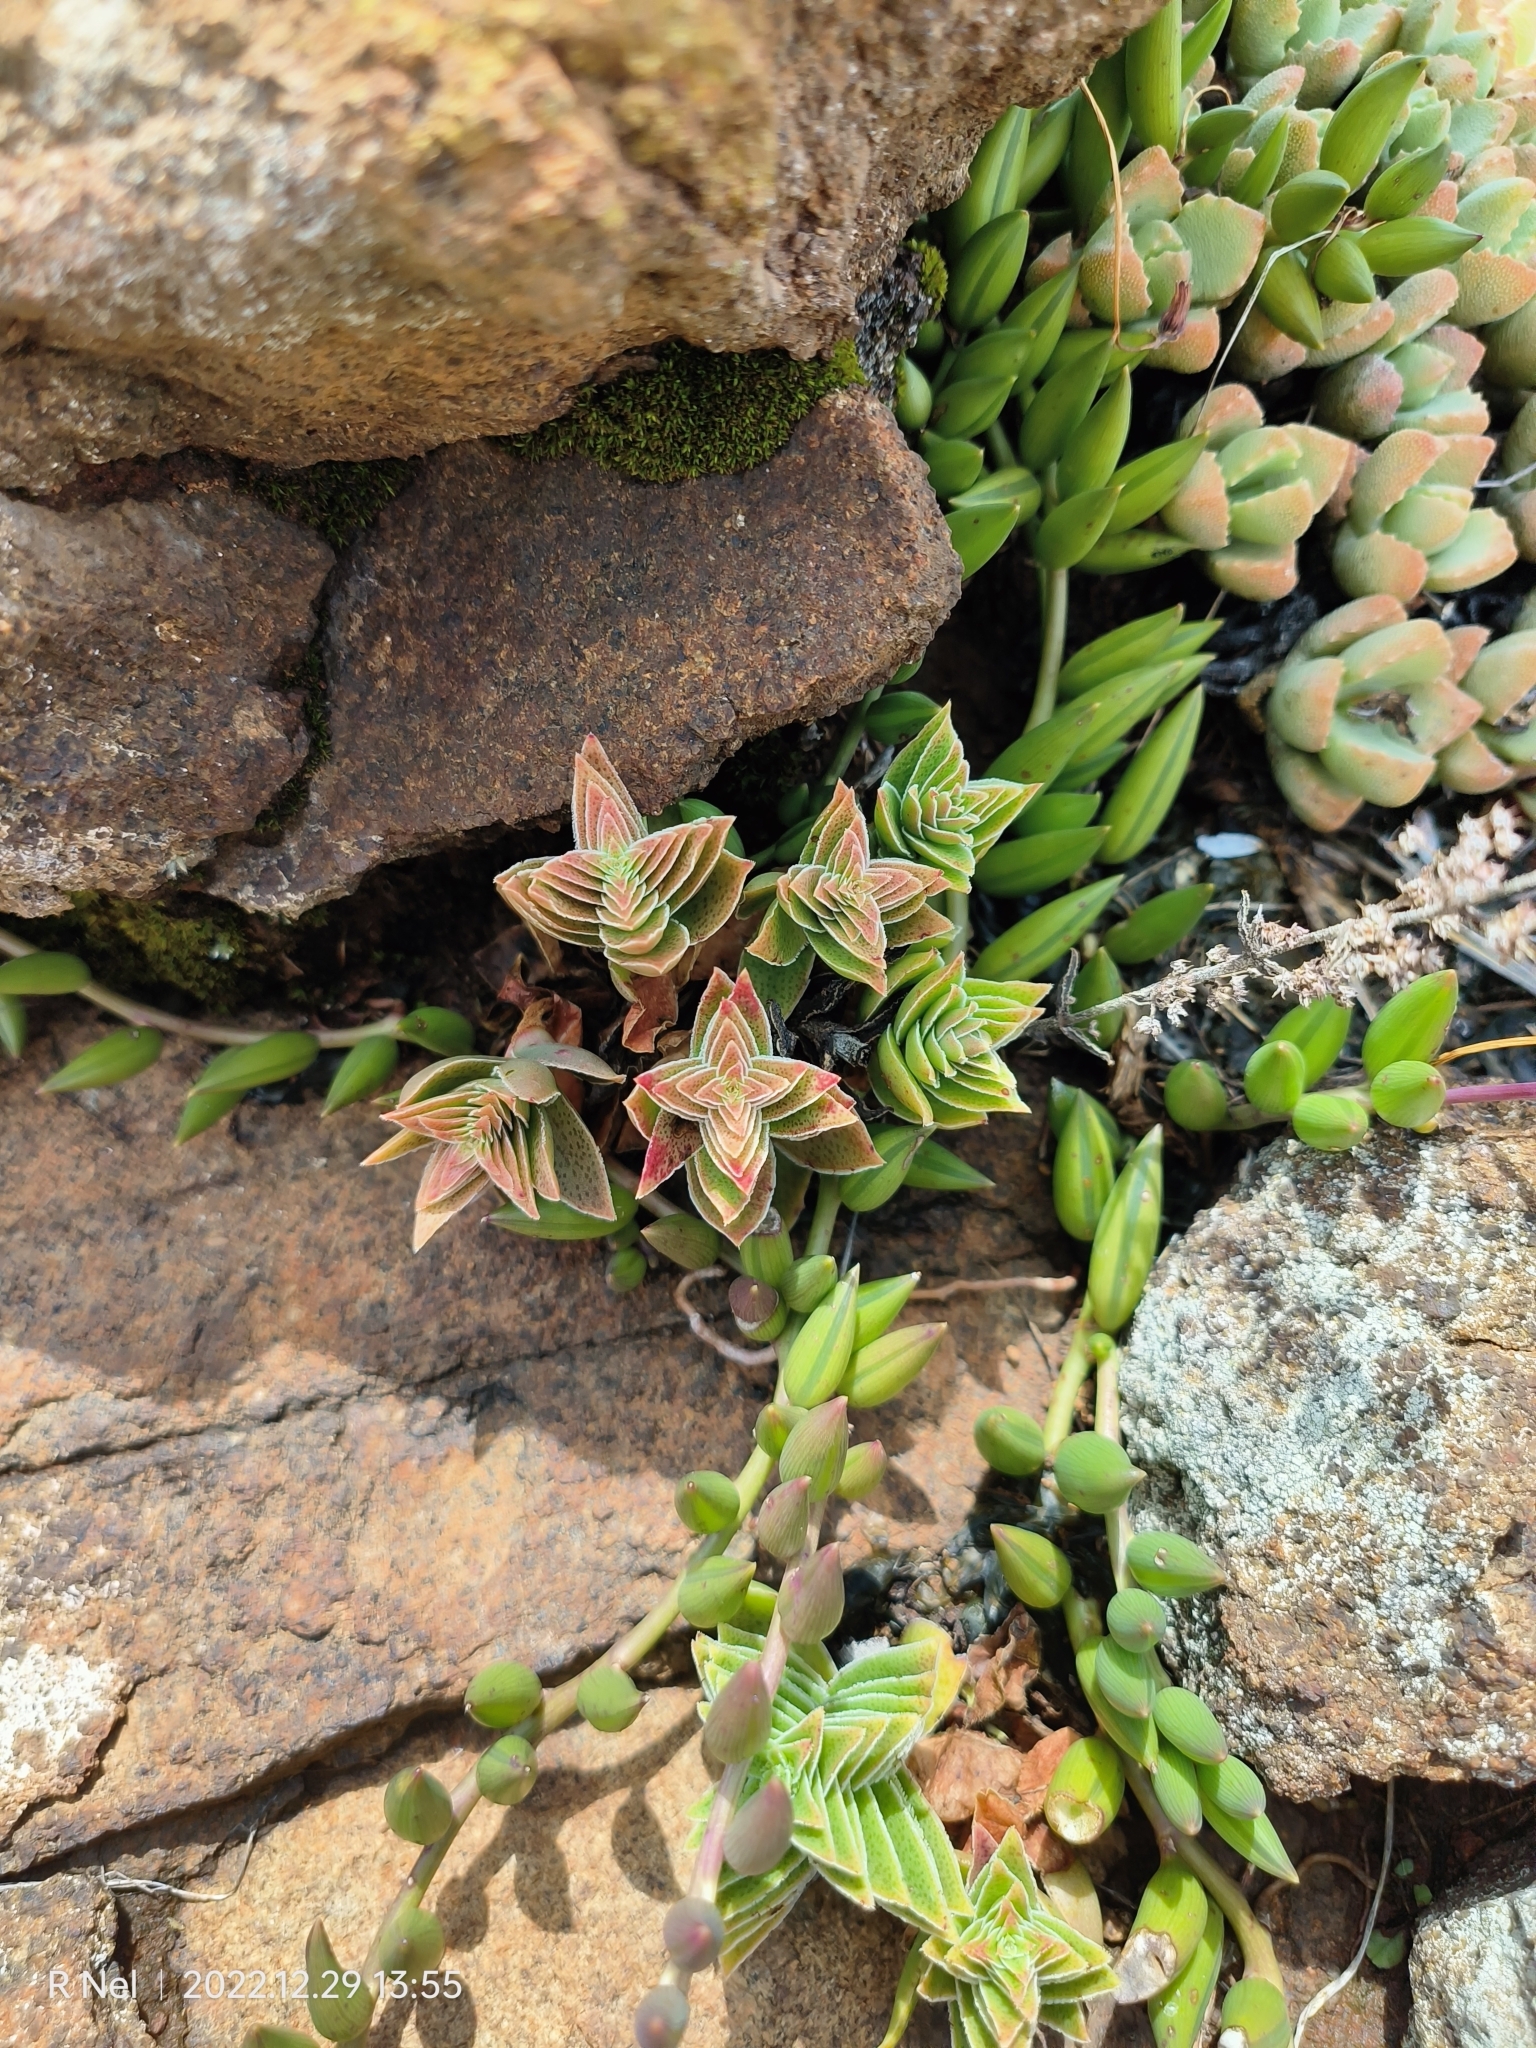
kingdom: Plantae
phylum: Tracheophyta
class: Magnoliopsida
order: Saxifragales
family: Crassulaceae
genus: Crassula
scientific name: Crassula capitella
